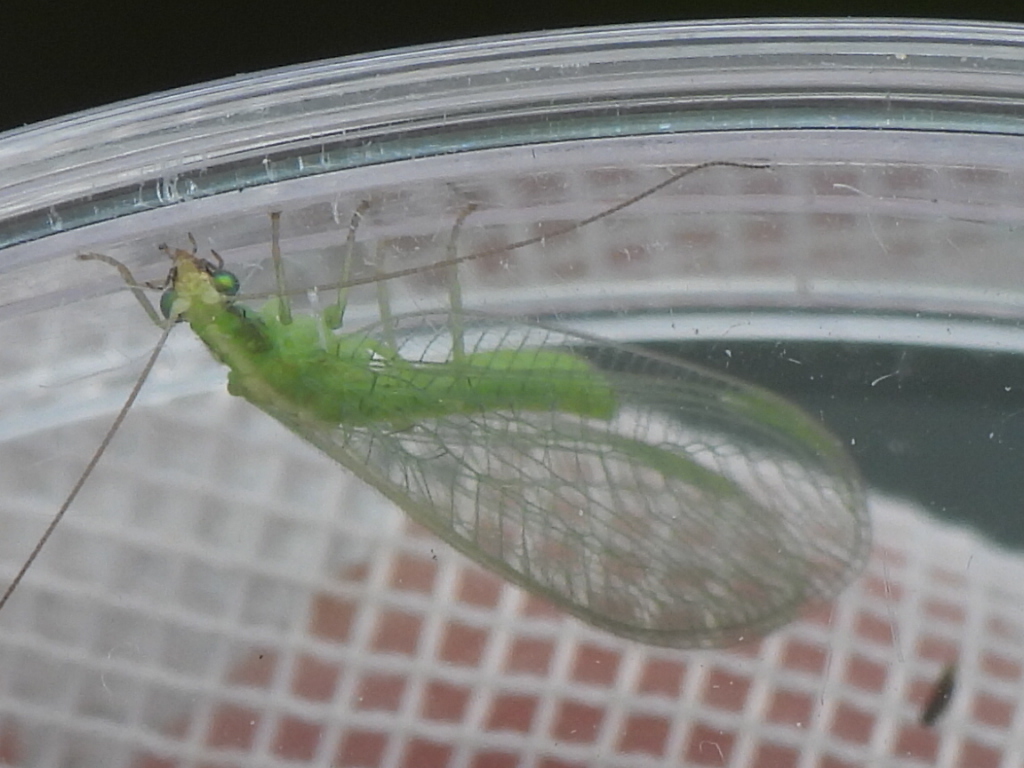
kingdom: Animalia
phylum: Arthropoda
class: Insecta
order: Neuroptera
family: Chrysopidae
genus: Chrysoperla
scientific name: Chrysoperla rufilabris
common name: Red-lipped green lacewing
